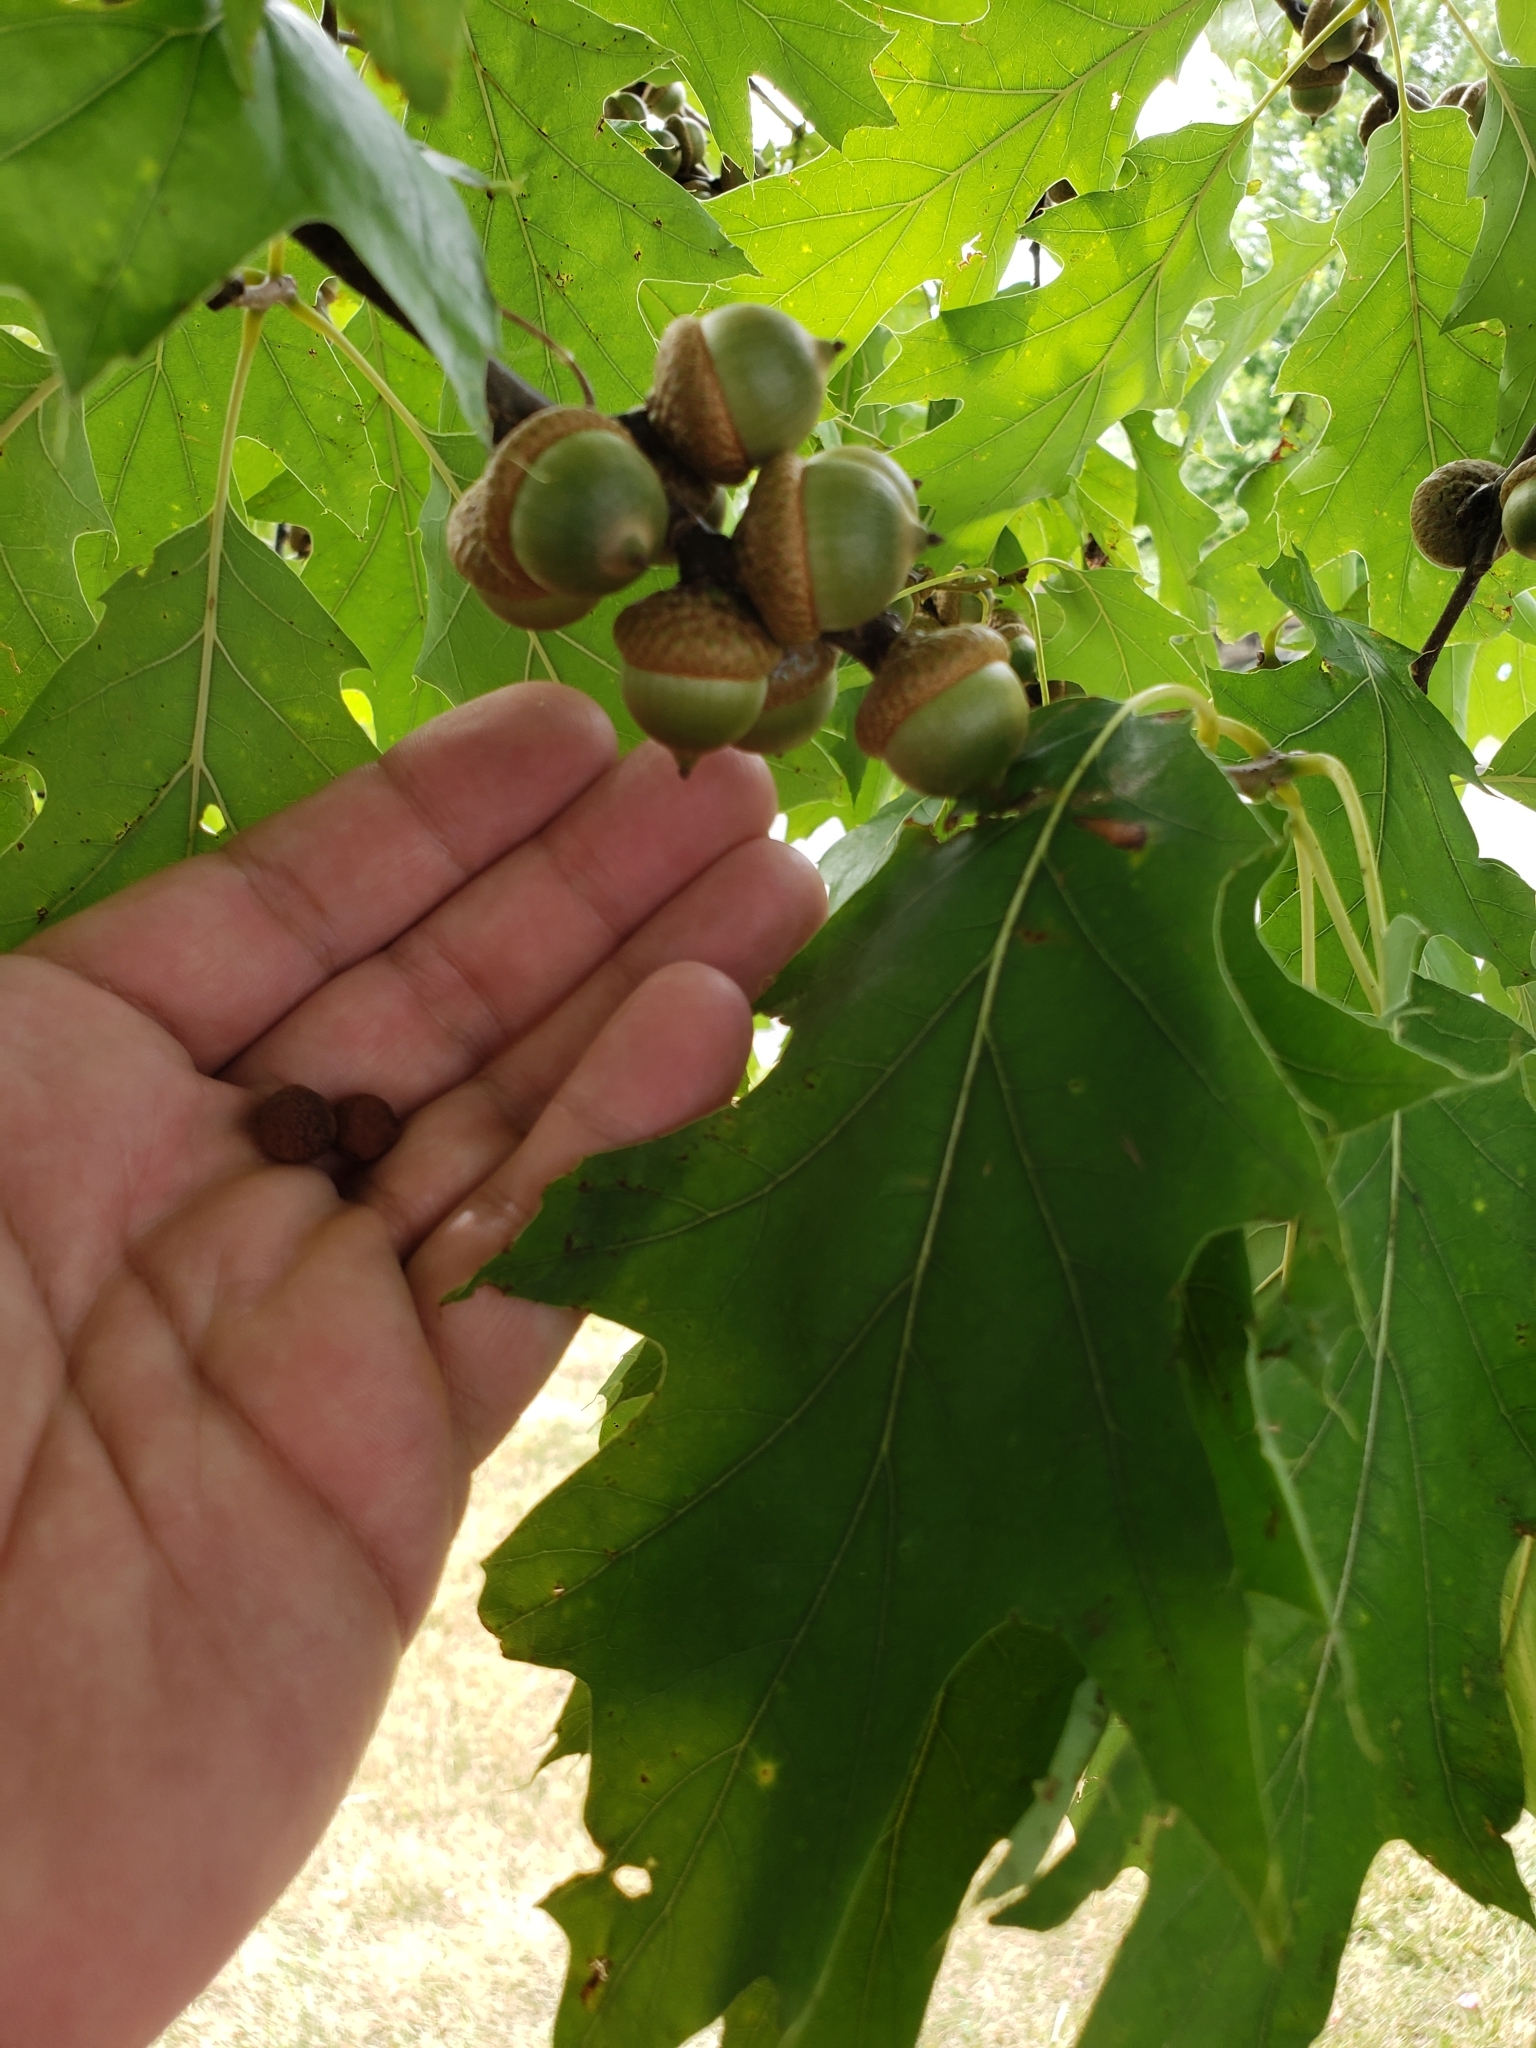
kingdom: Animalia
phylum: Arthropoda
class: Insecta
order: Hymenoptera
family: Cynipidae
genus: Kokkocynips
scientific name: Kokkocynips imbricariae
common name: Banded bullet gall wasp
